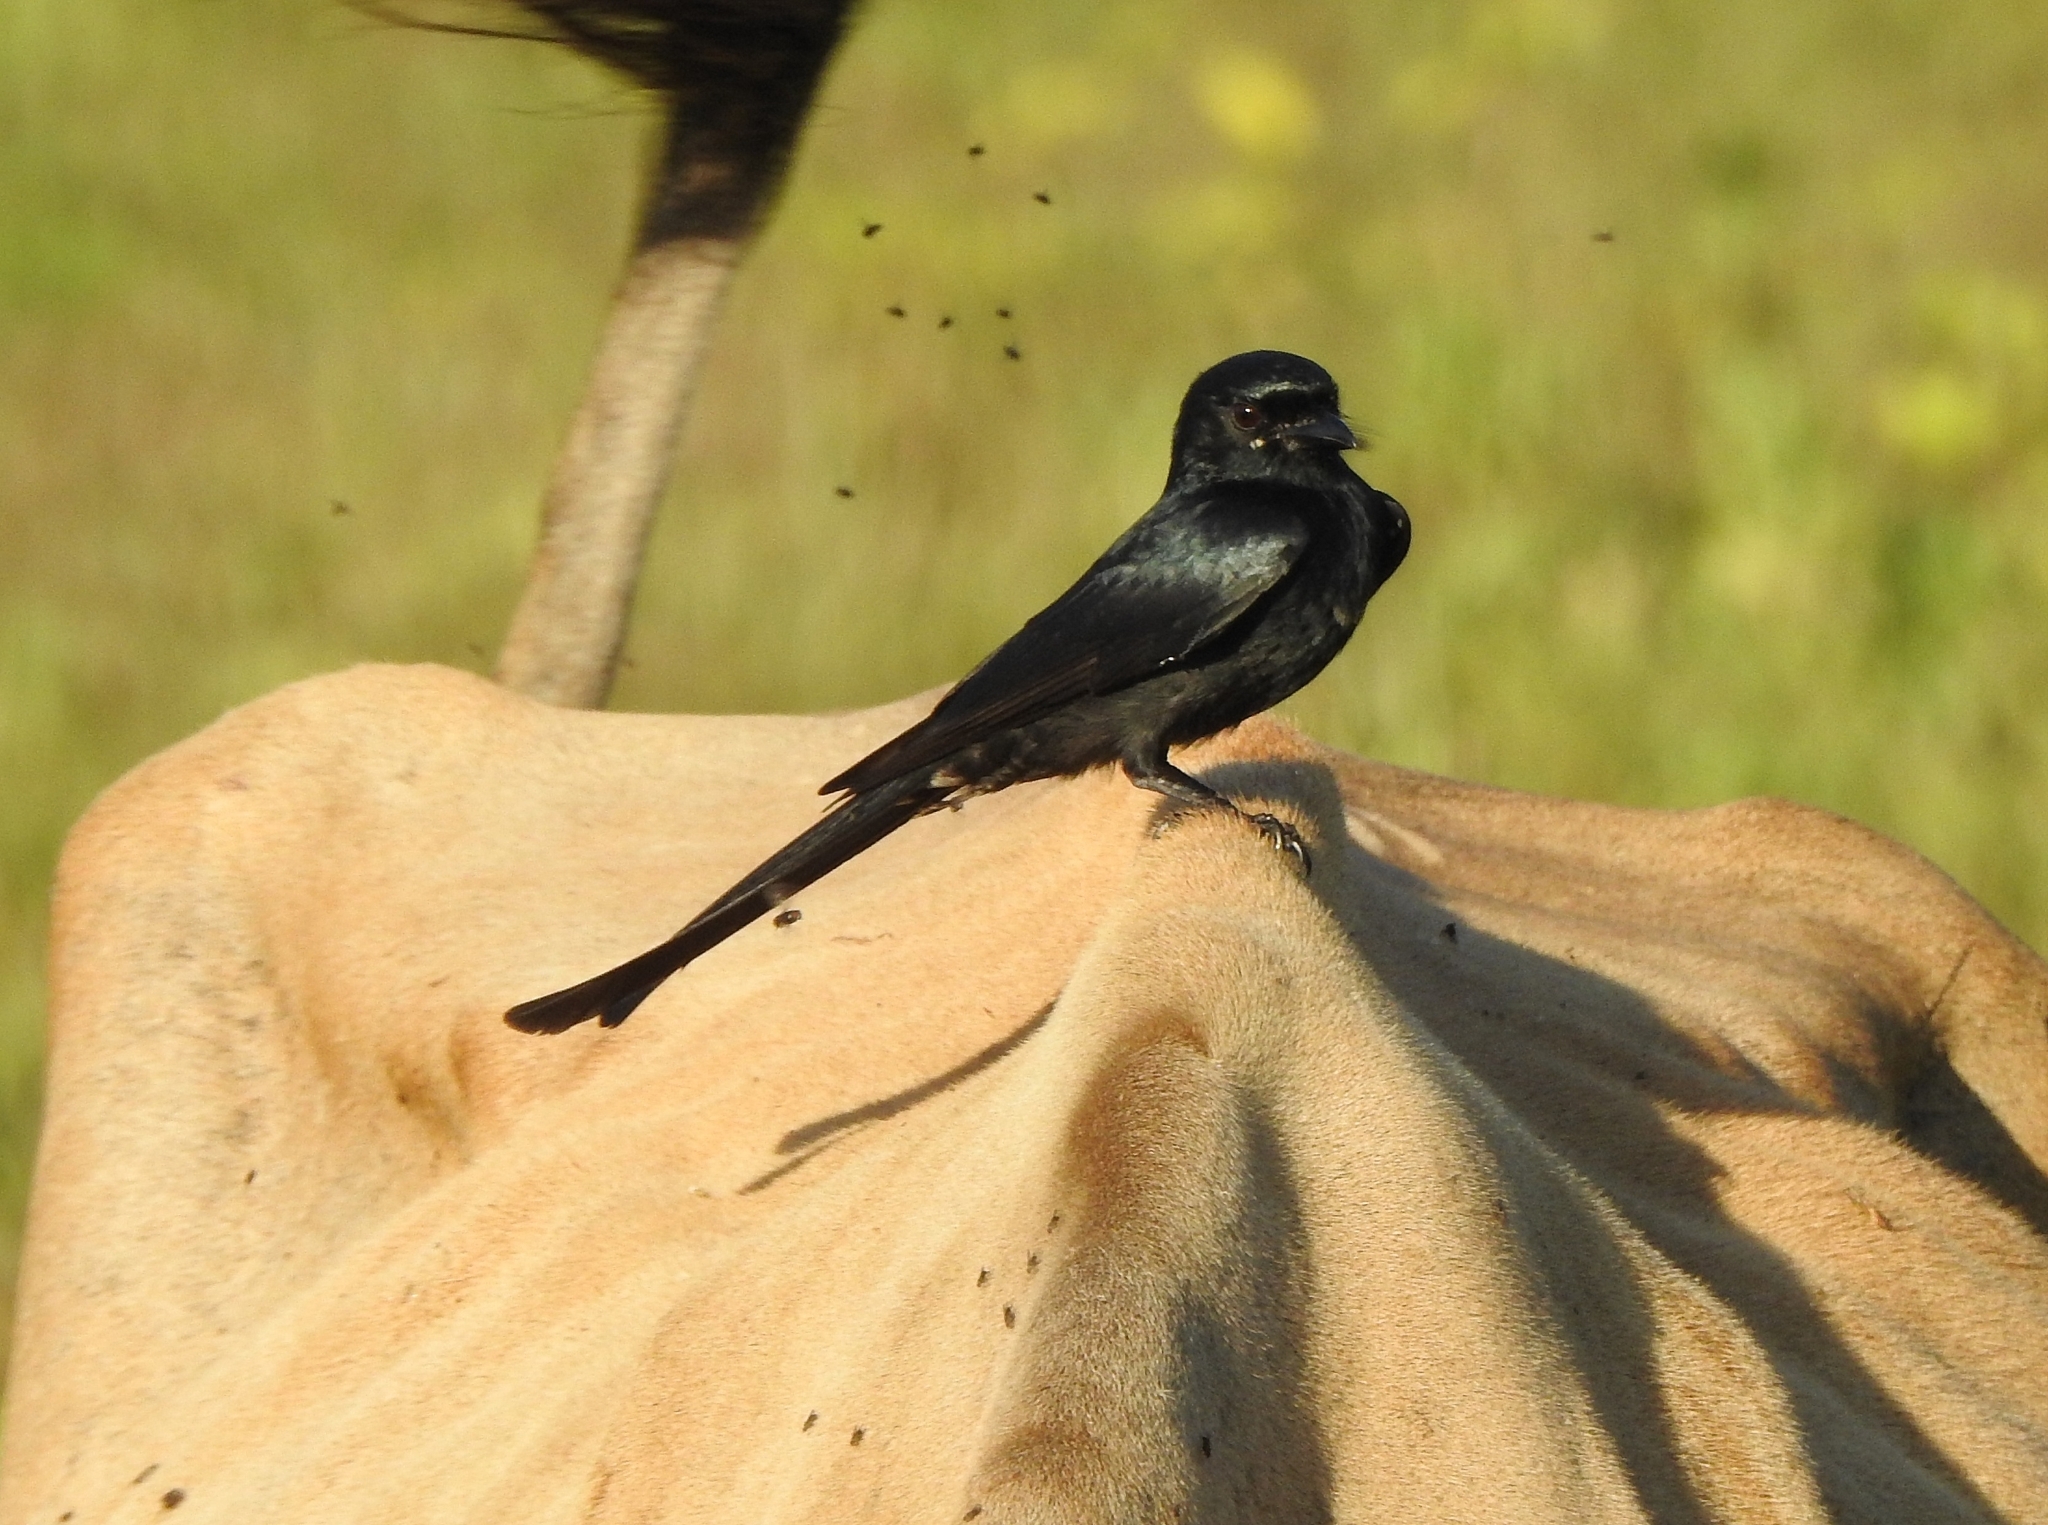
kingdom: Animalia
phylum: Chordata
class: Aves
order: Passeriformes
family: Dicruridae
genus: Dicrurus
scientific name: Dicrurus macrocercus
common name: Black drongo
